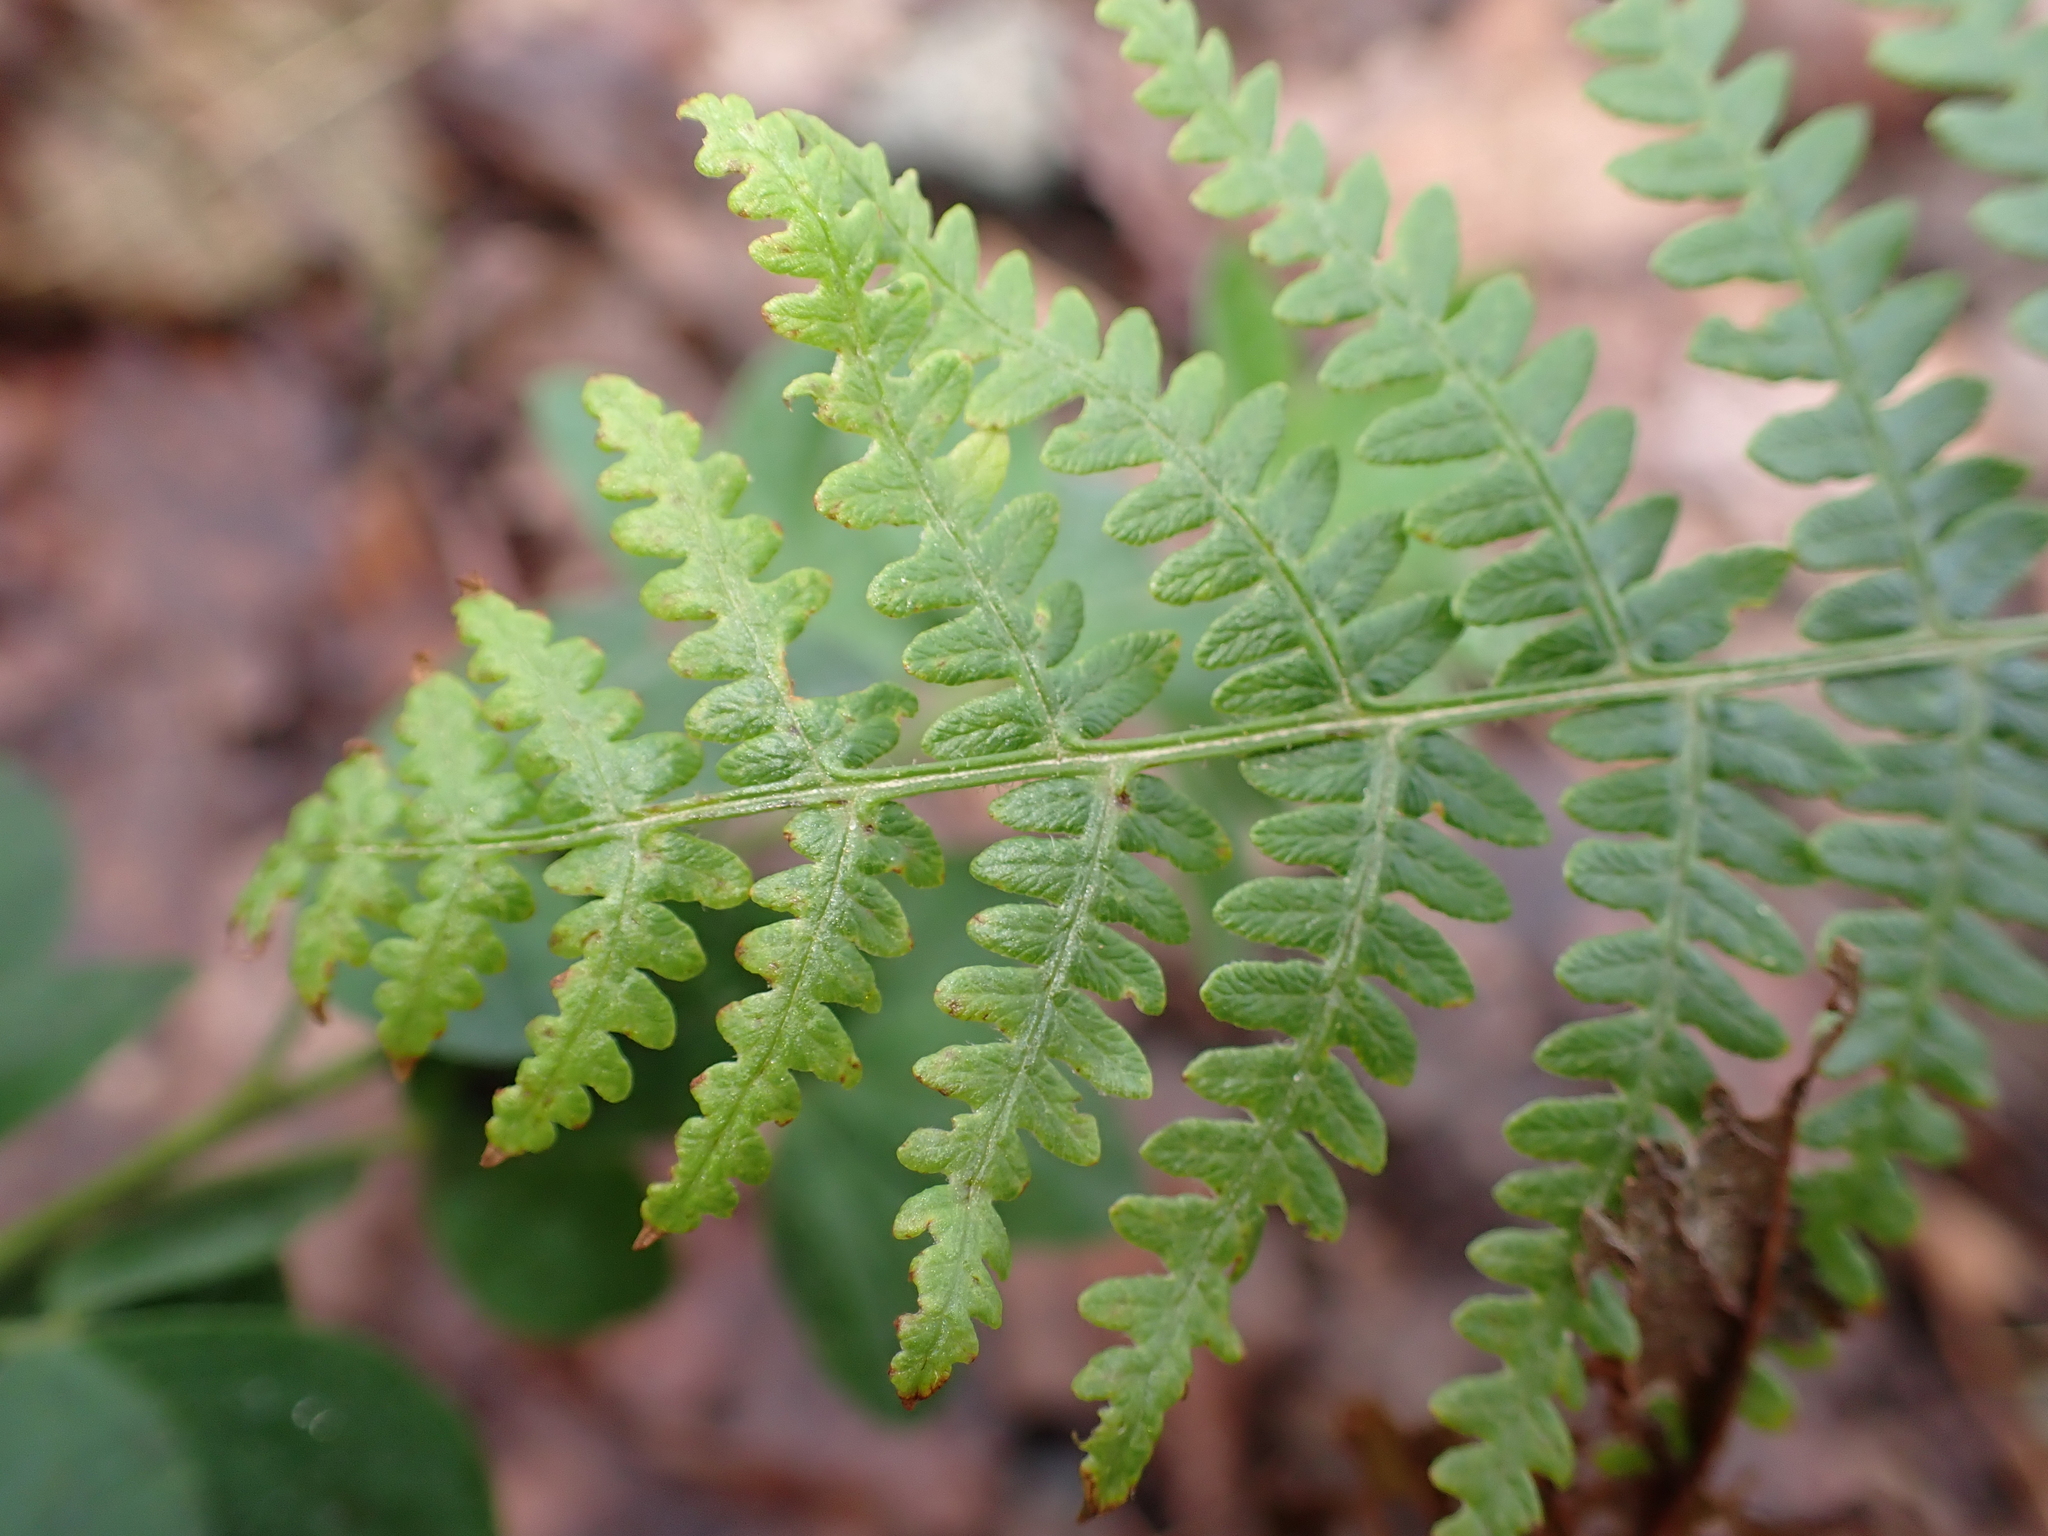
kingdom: Plantae
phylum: Tracheophyta
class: Polypodiopsida
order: Polypodiales
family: Dennstaedtiaceae
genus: Pteridium
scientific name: Pteridium aquilinum
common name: Bracken
